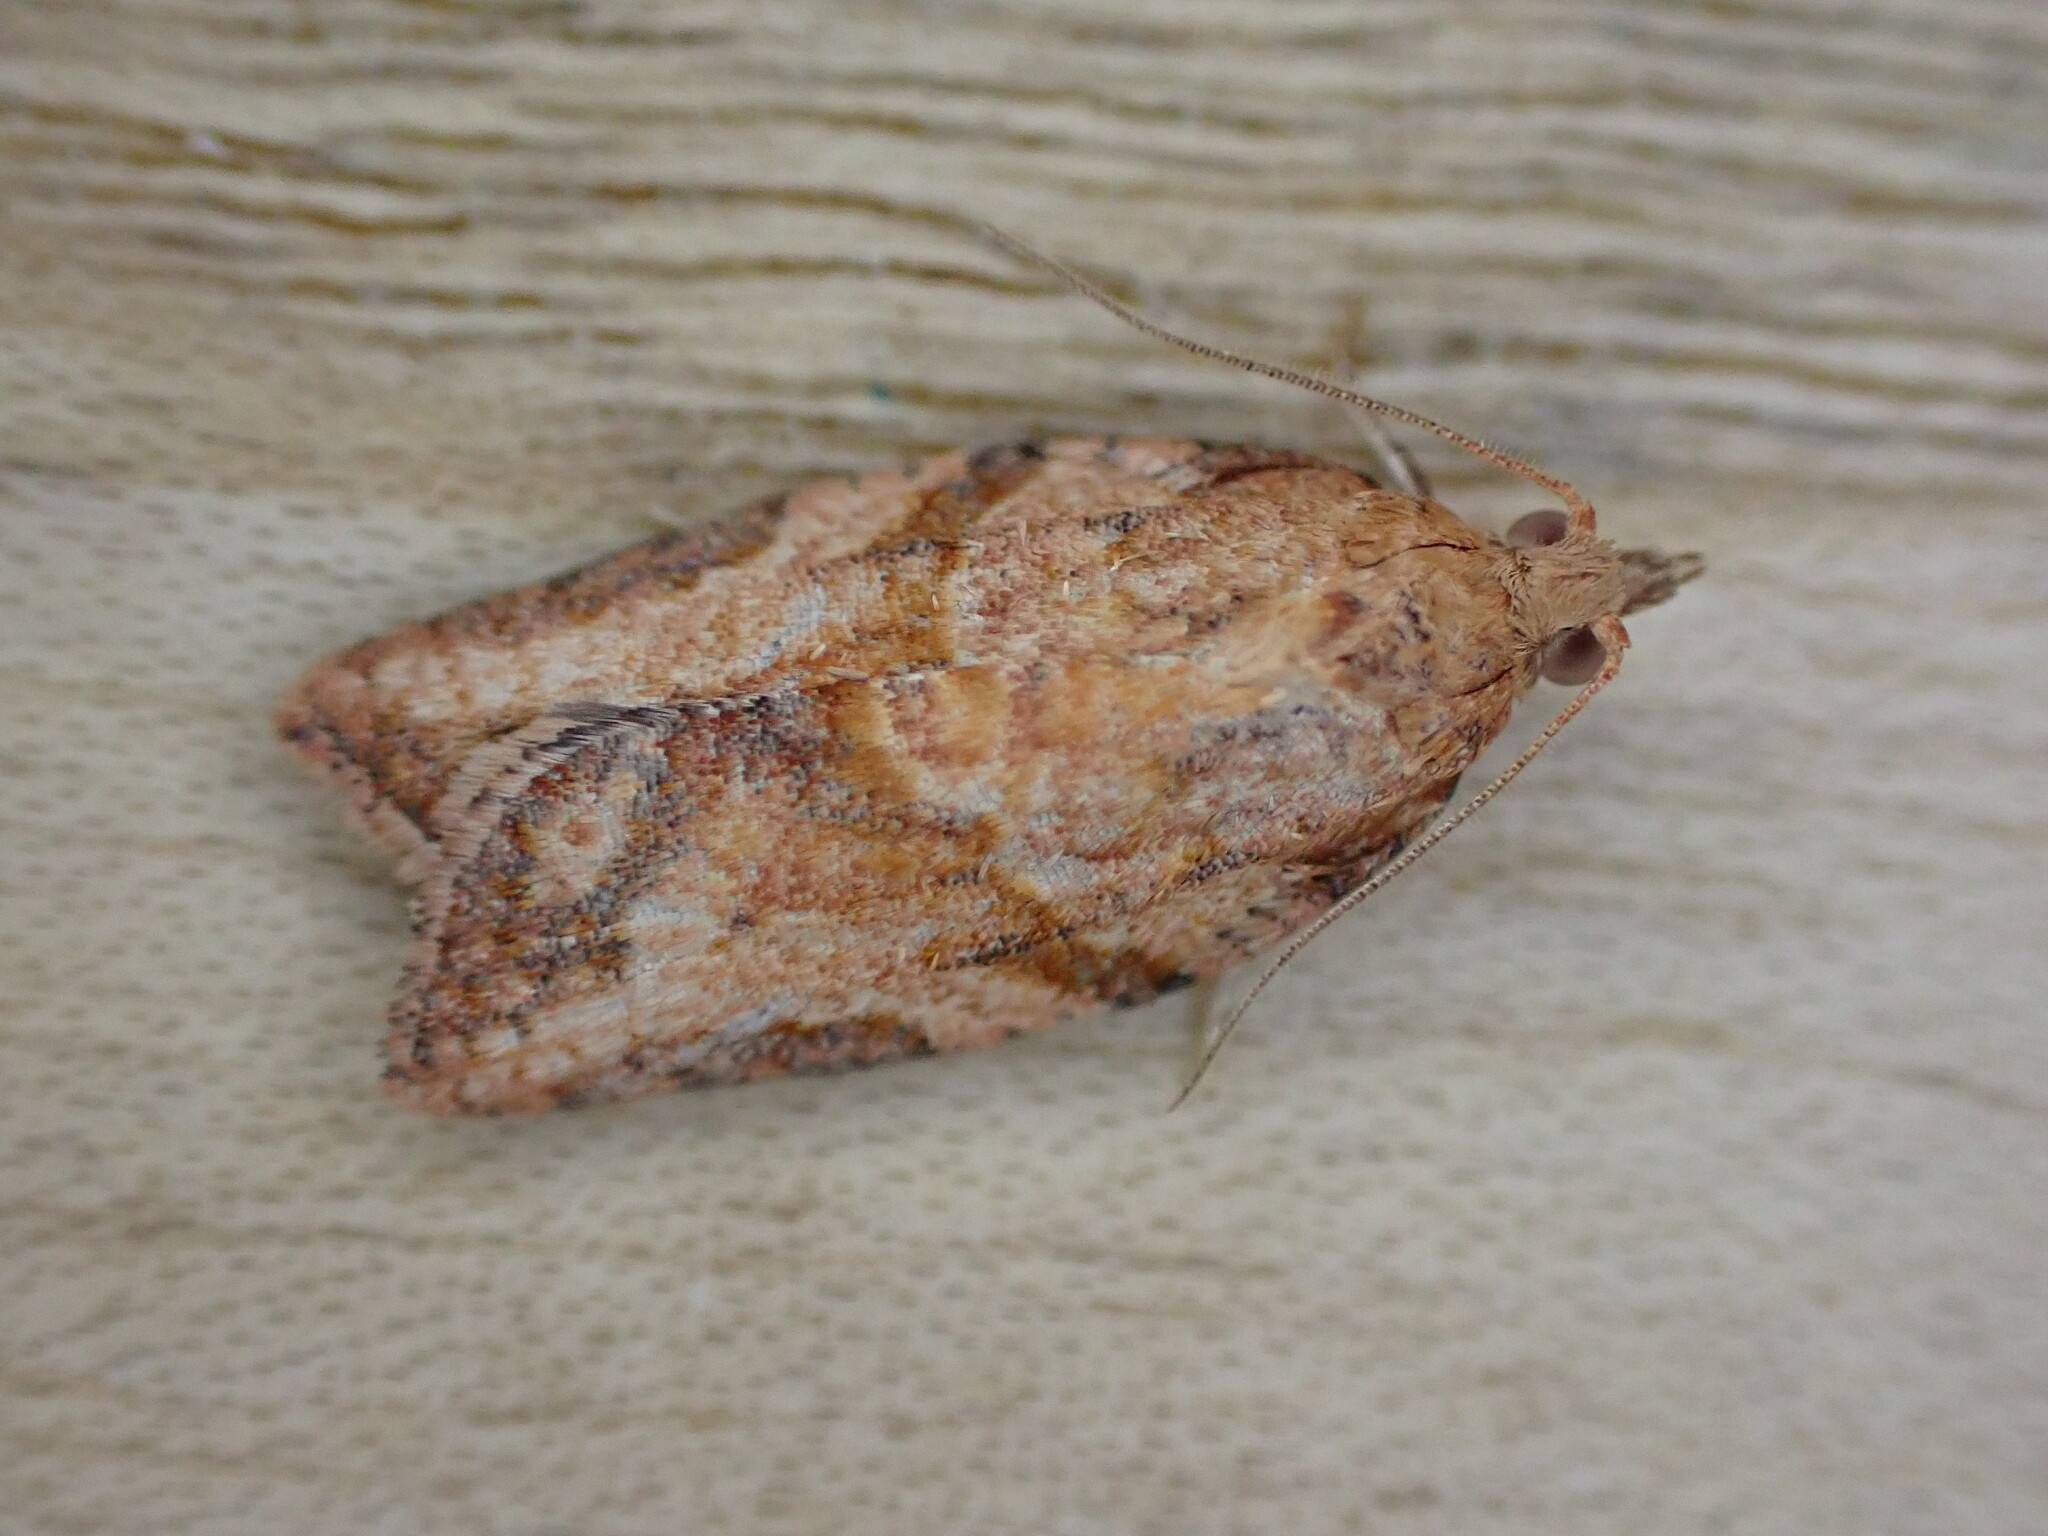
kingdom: Animalia
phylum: Arthropoda
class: Insecta
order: Lepidoptera
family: Tortricidae
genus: Epiphyas
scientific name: Epiphyas postvittana
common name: Light brown apple moth
